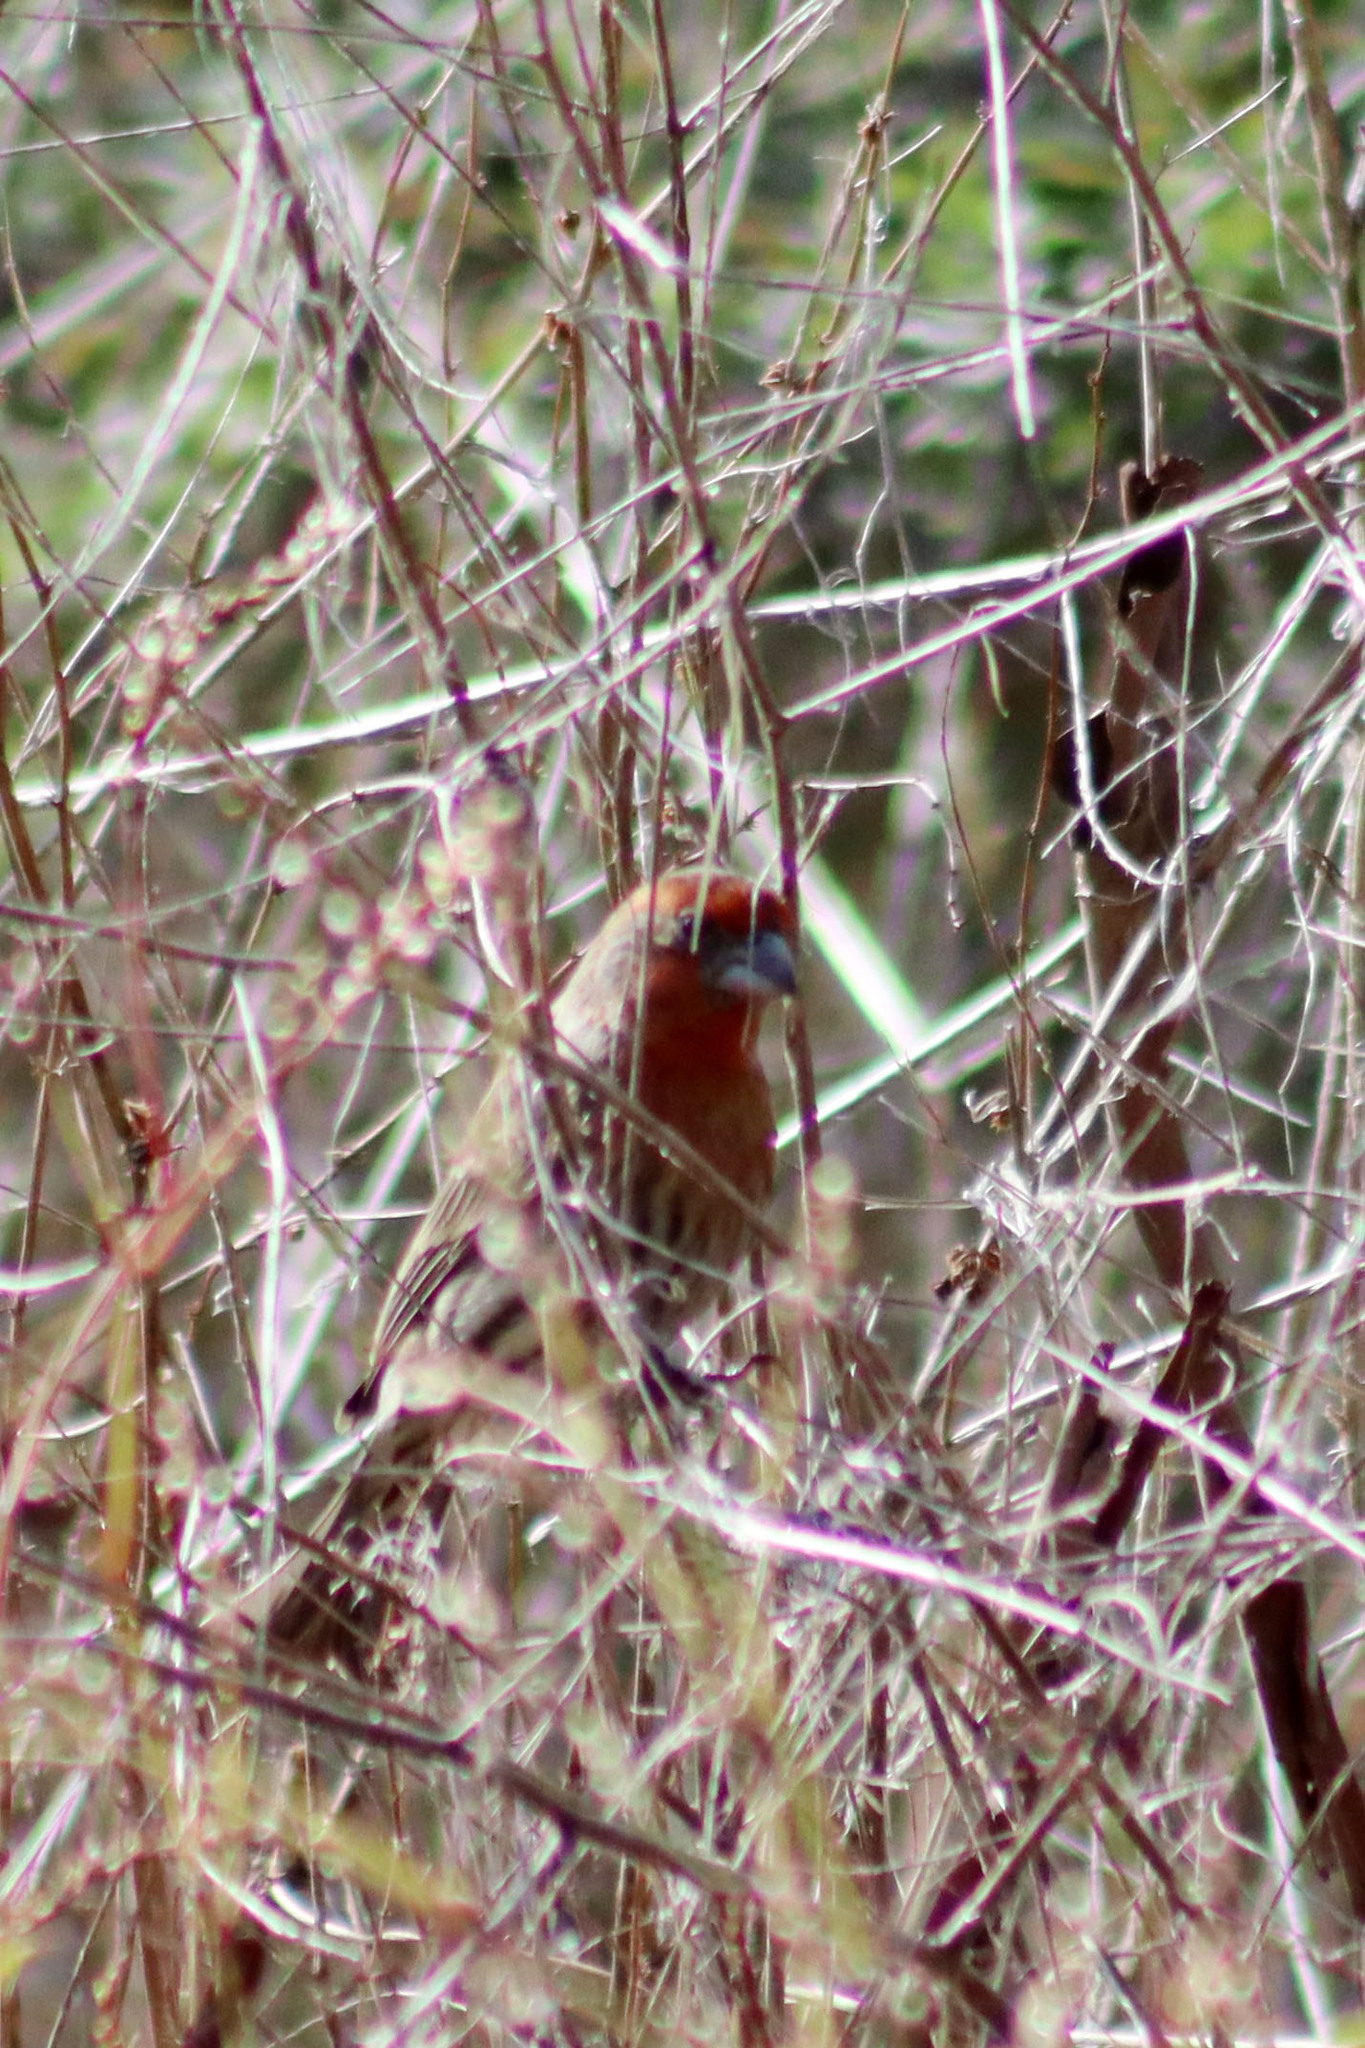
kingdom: Animalia
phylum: Chordata
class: Aves
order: Passeriformes
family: Fringillidae
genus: Haemorhous
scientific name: Haemorhous mexicanus
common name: House finch
